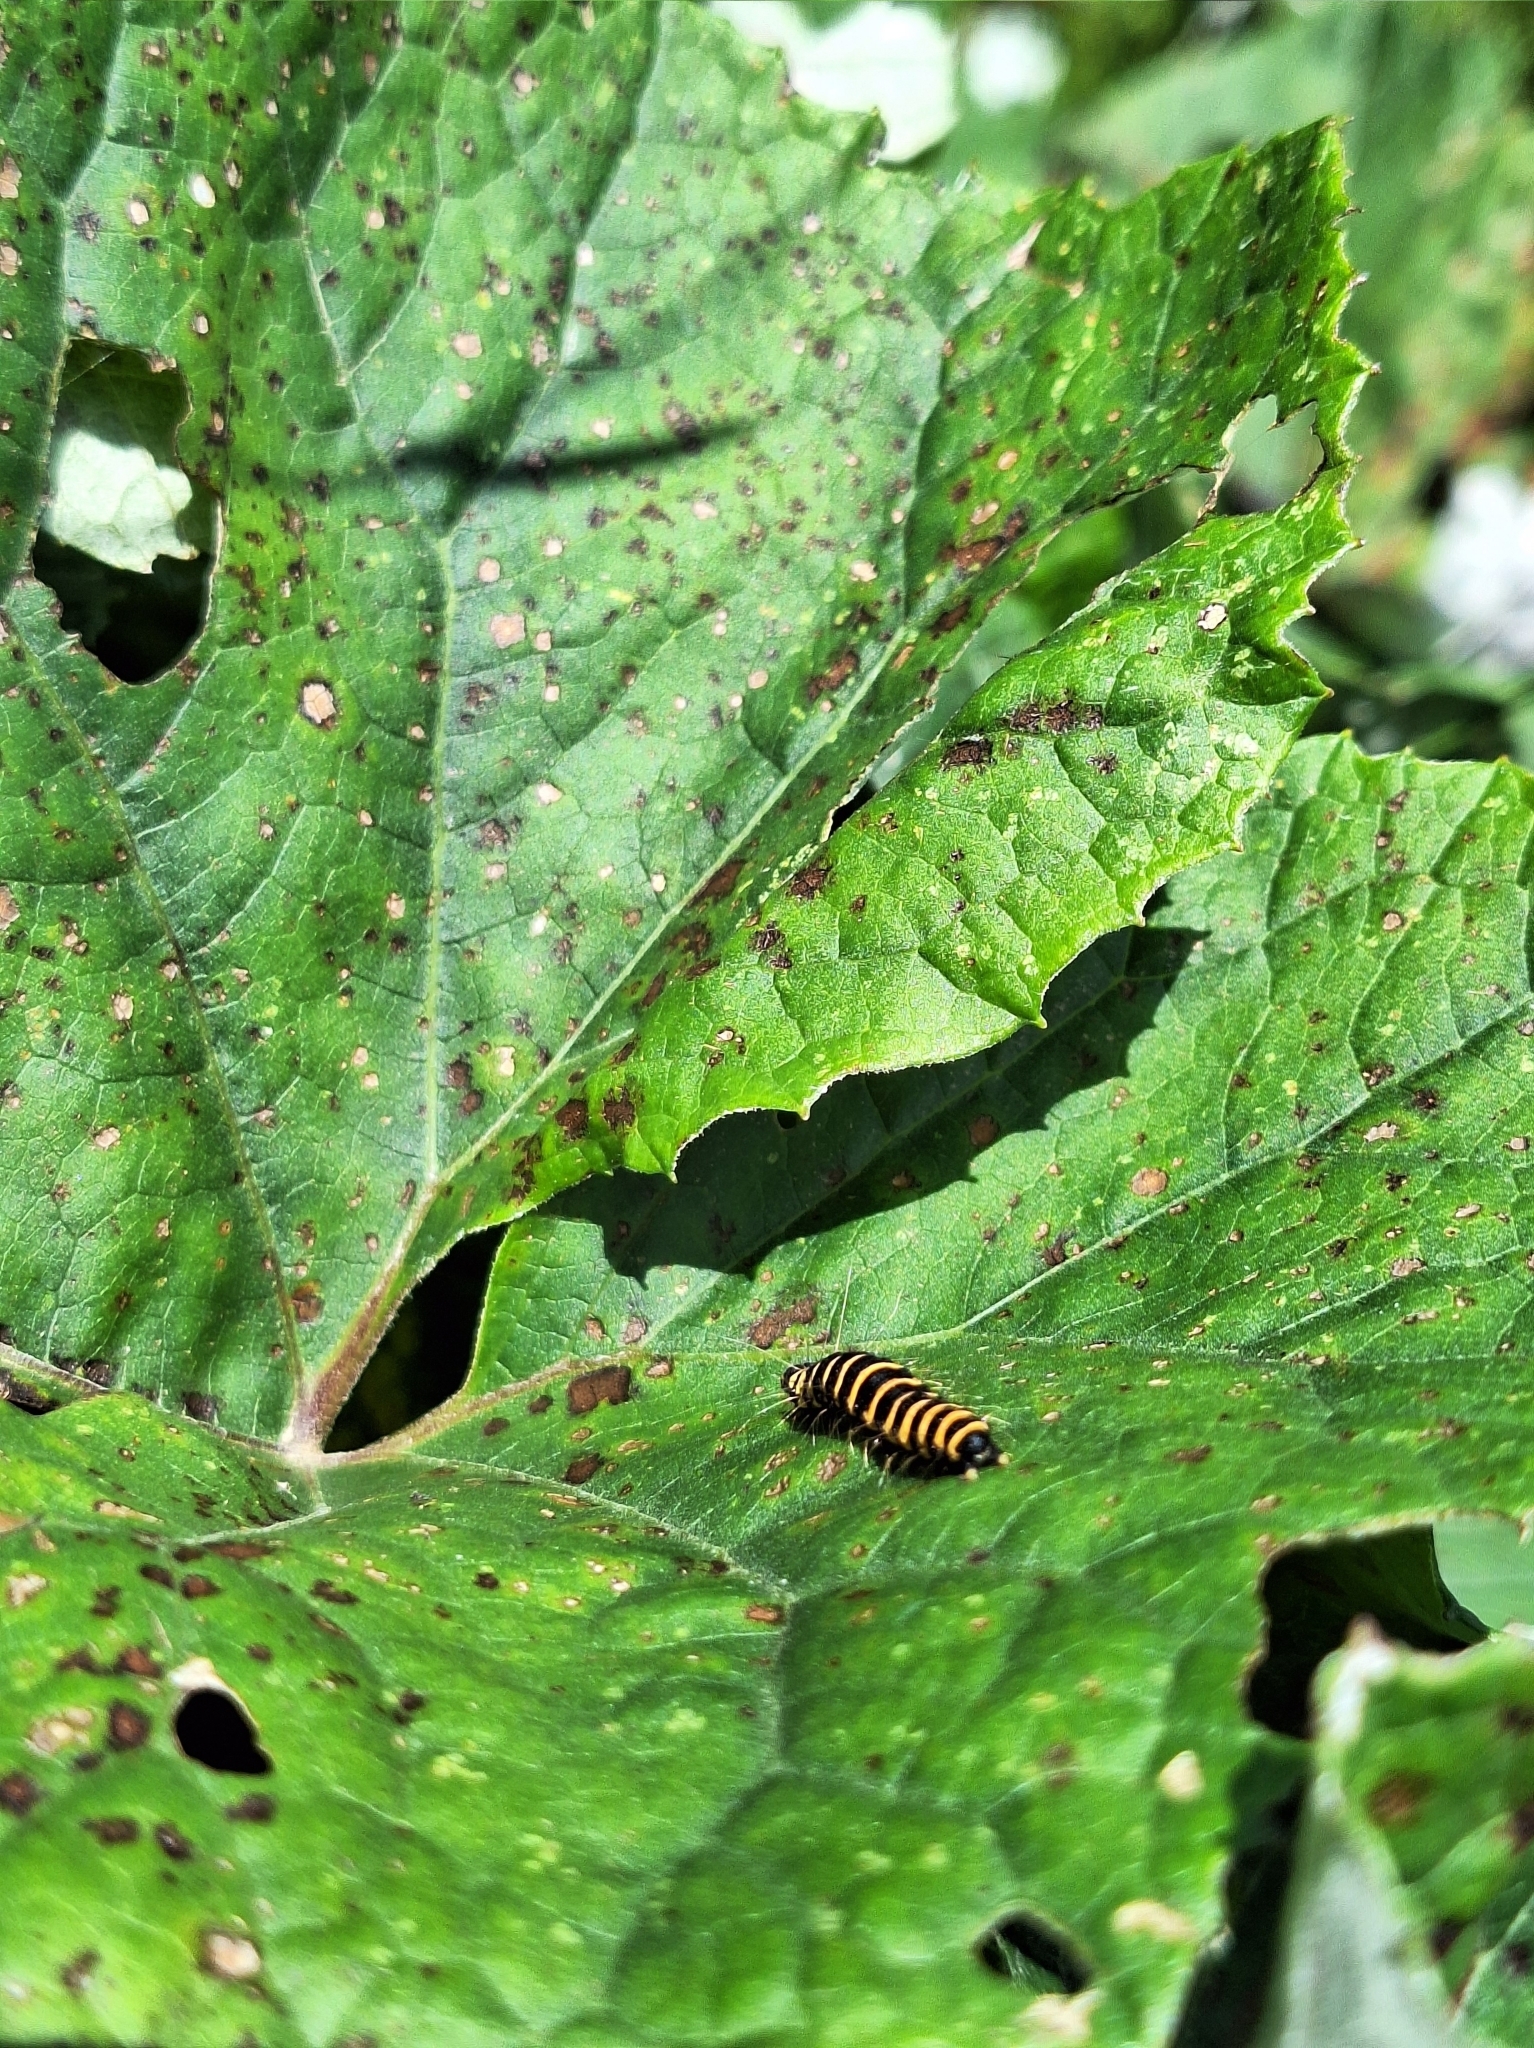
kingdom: Animalia
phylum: Arthropoda
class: Insecta
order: Lepidoptera
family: Erebidae
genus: Tyria
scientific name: Tyria jacobaeae
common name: Cinnabar
